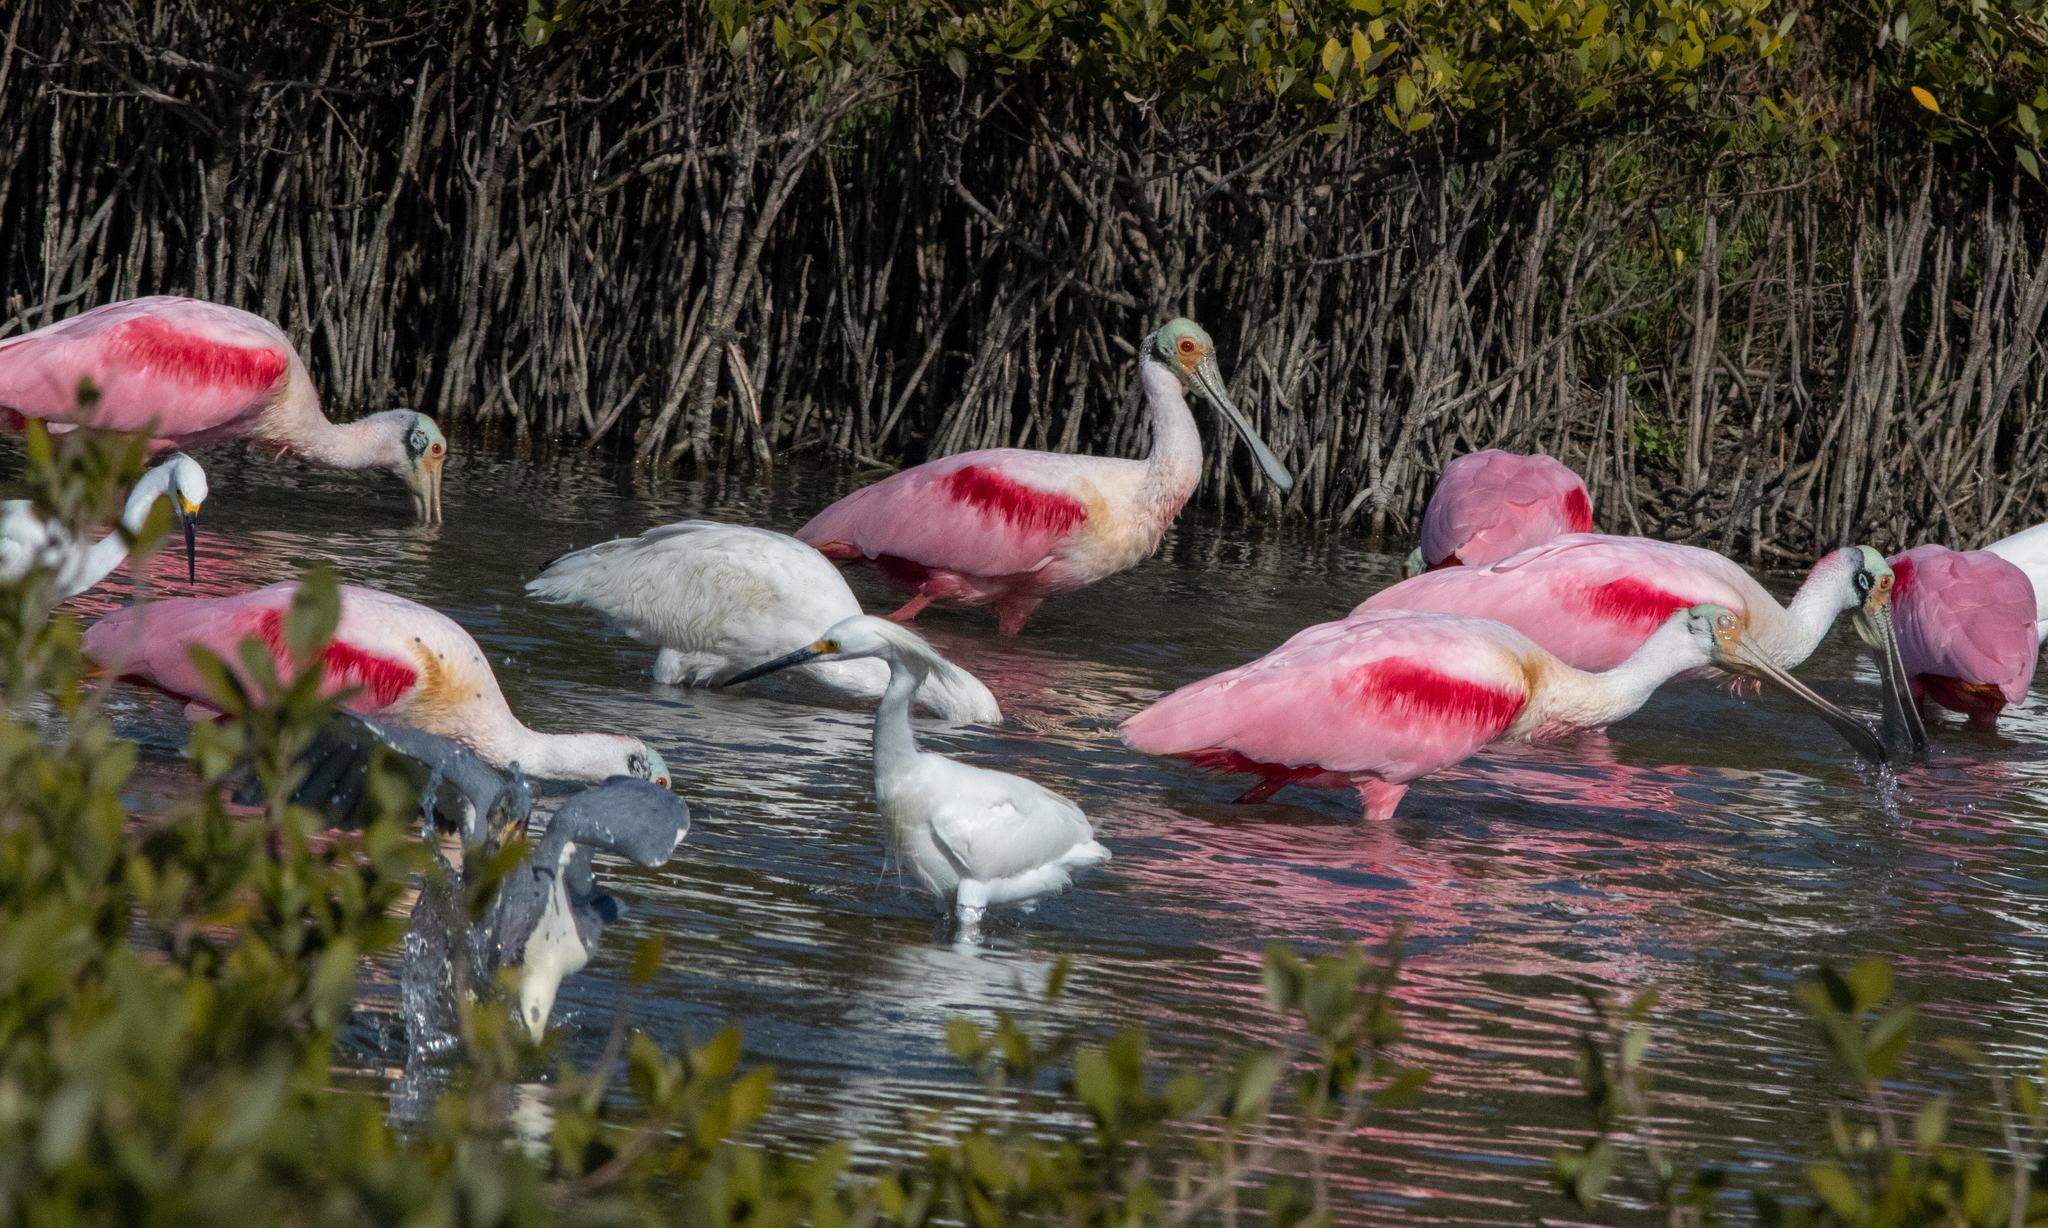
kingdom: Animalia
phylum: Chordata
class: Aves
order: Pelecaniformes
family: Threskiornithidae
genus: Platalea
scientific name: Platalea ajaja
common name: Roseate spoonbill
